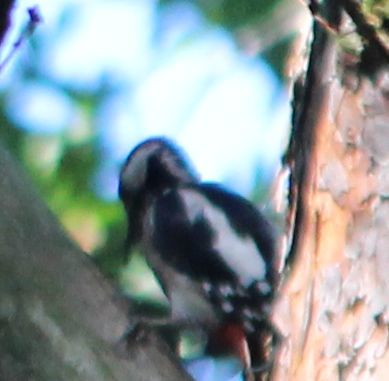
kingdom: Animalia
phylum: Chordata
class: Aves
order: Piciformes
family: Picidae
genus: Dendrocopos
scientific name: Dendrocopos major
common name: Great spotted woodpecker
